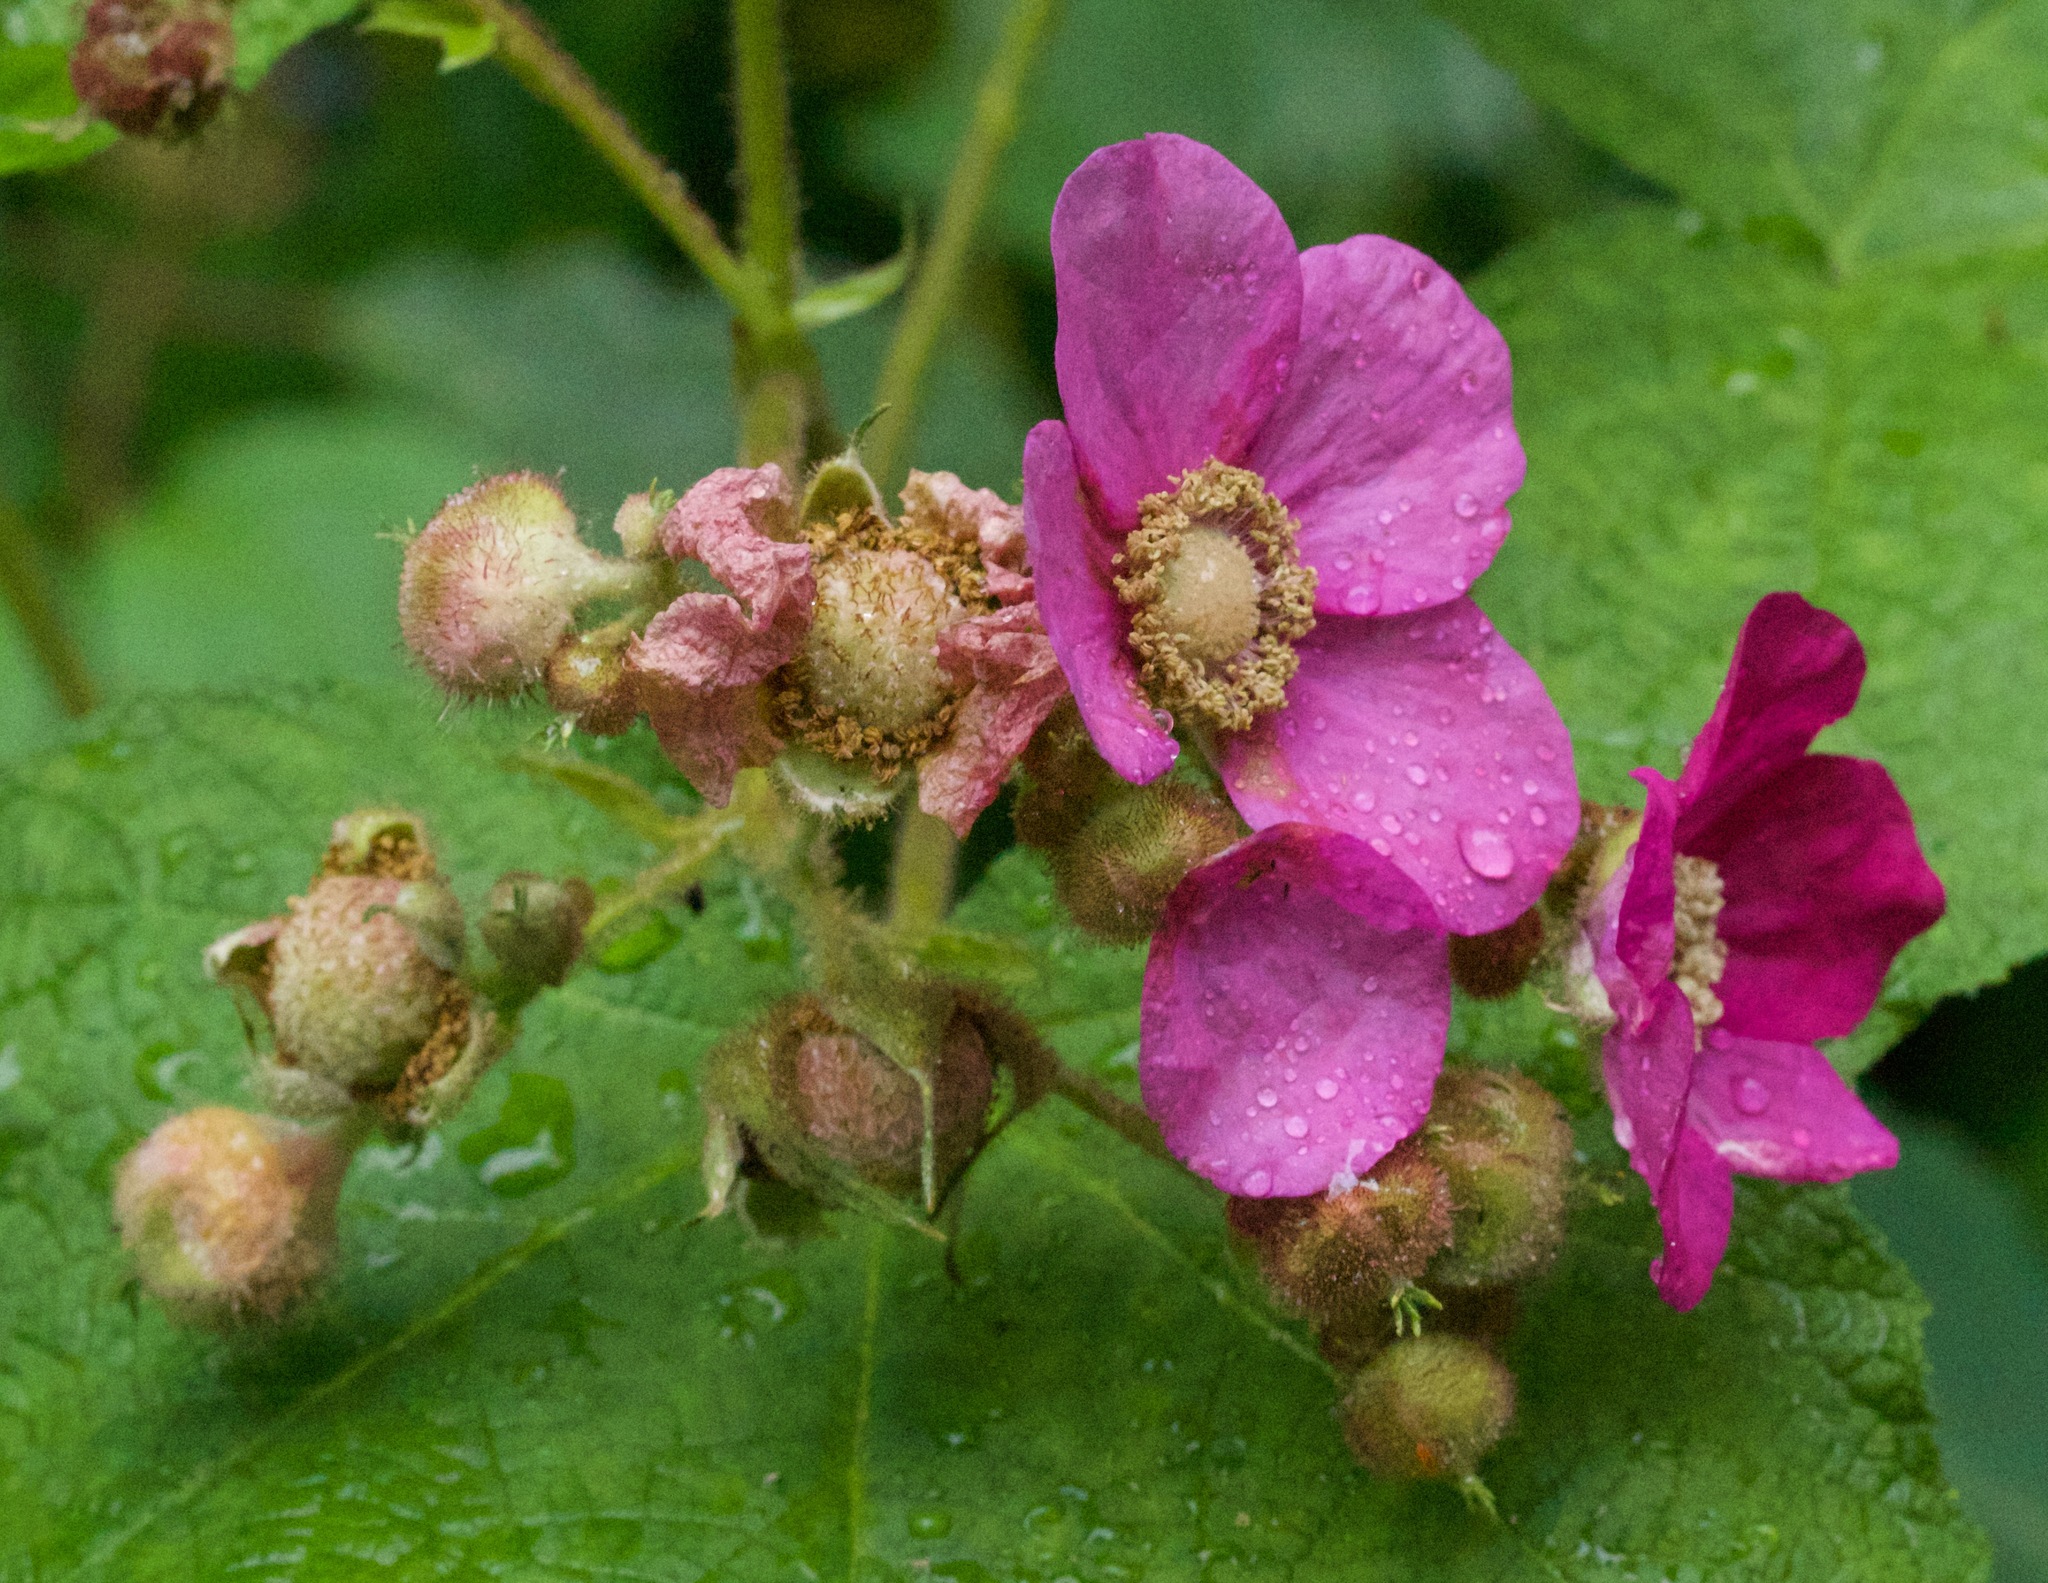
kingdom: Plantae
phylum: Tracheophyta
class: Magnoliopsida
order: Rosales
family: Rosaceae
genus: Rubus
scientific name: Rubus odoratus
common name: Purple-flowered raspberry
